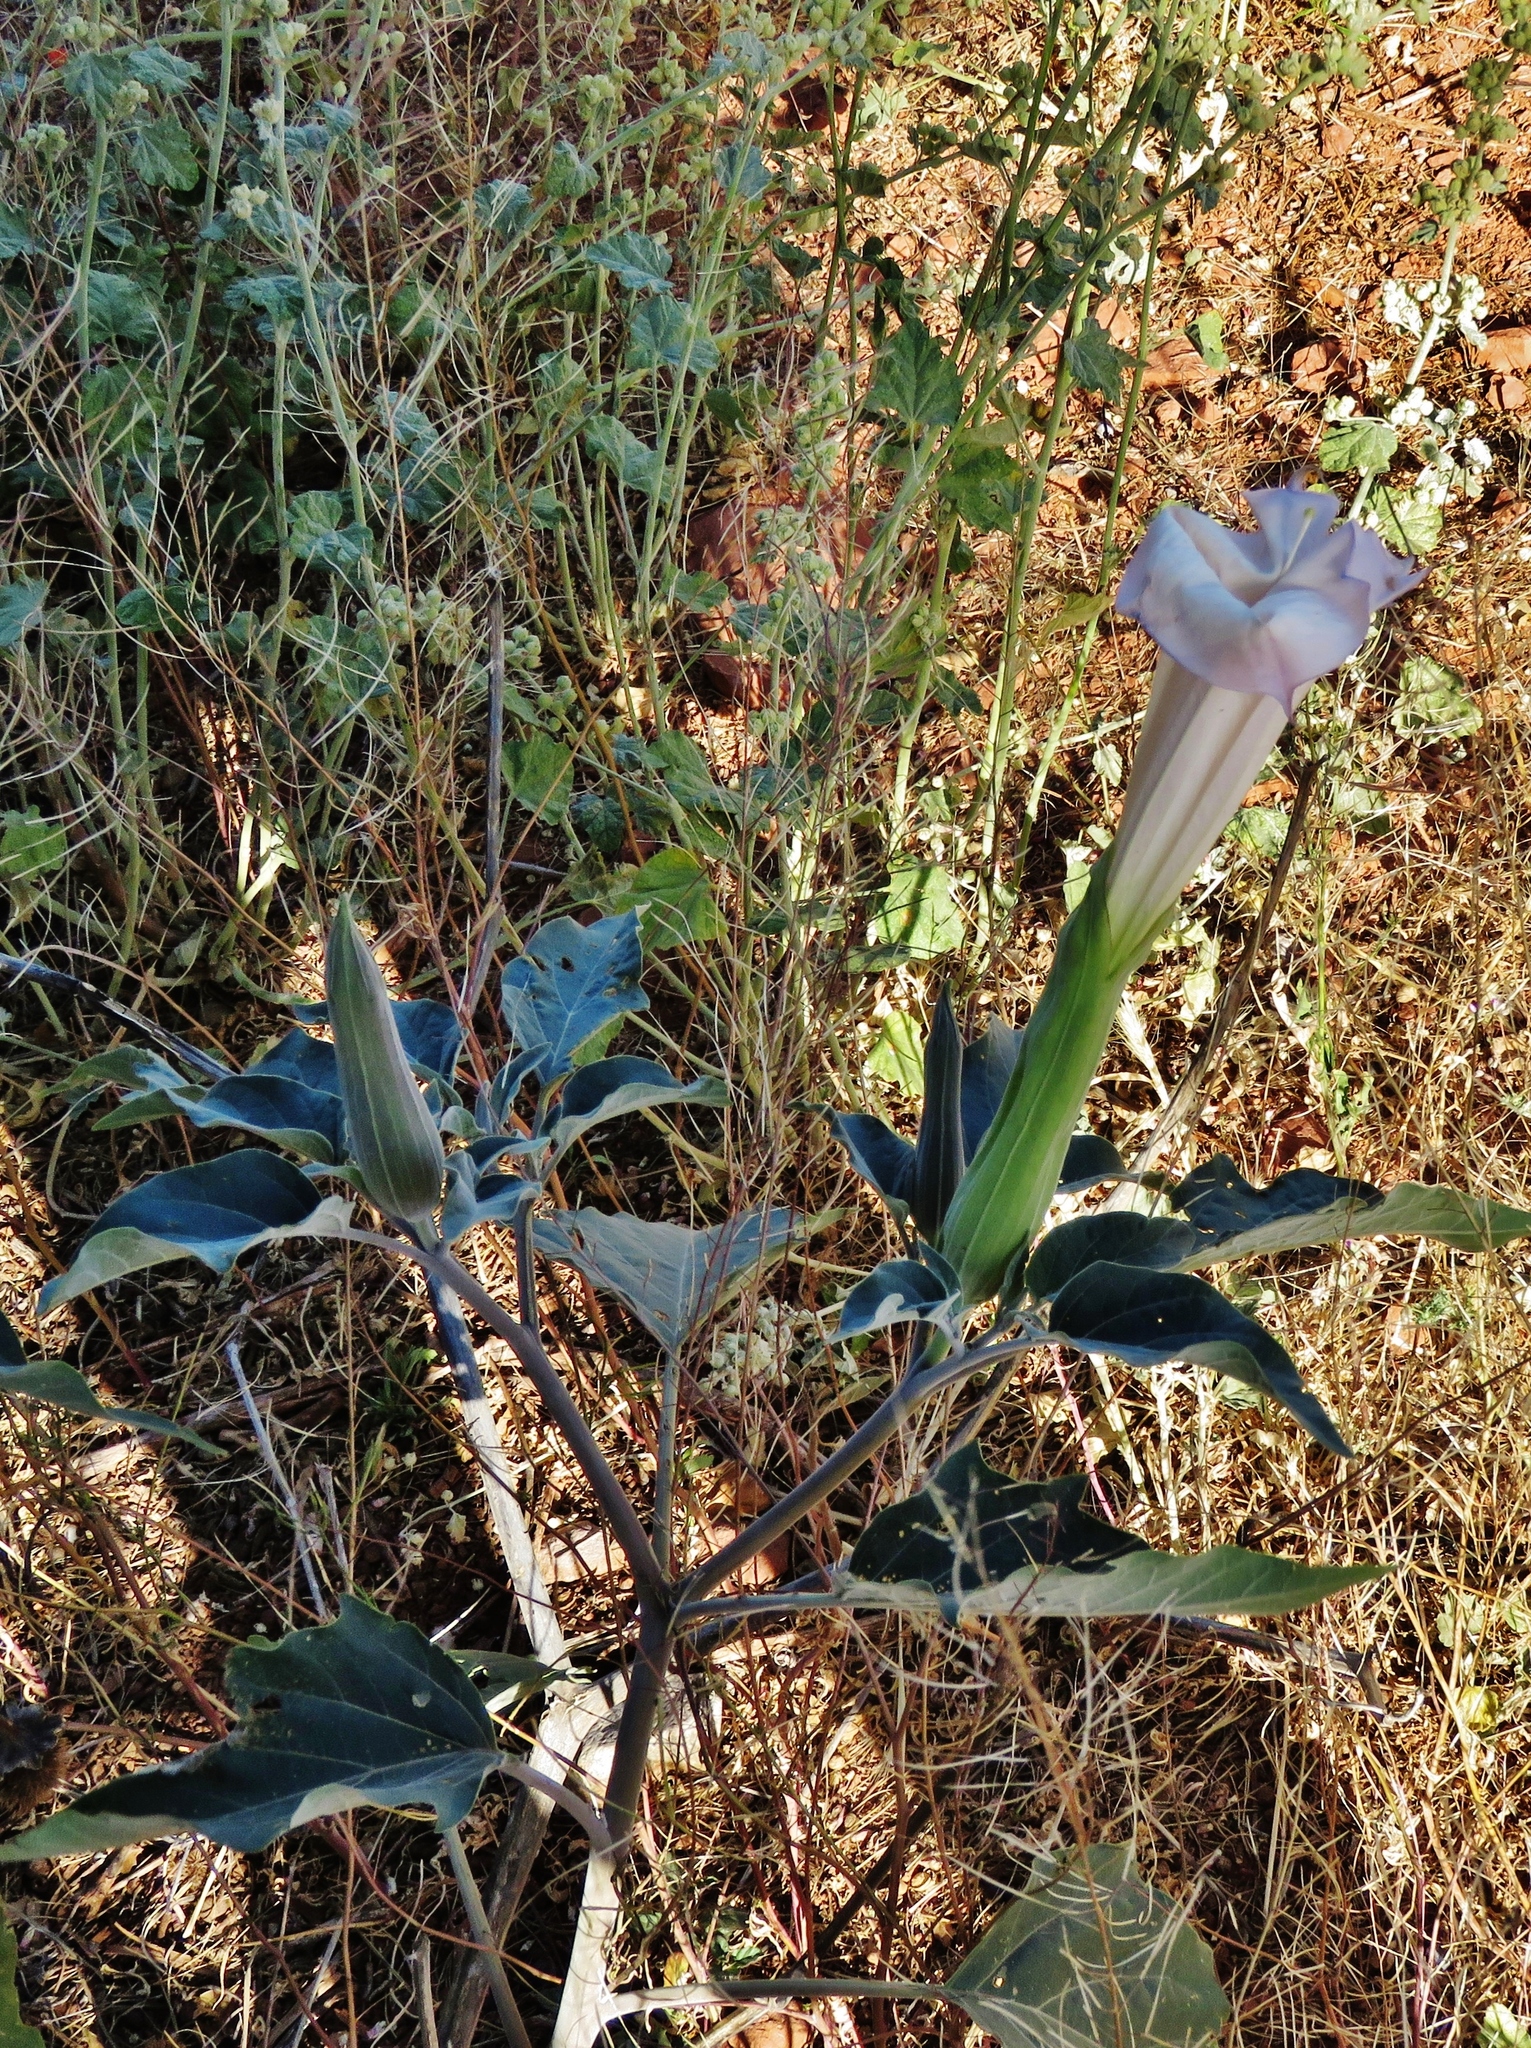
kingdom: Plantae
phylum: Tracheophyta
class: Magnoliopsida
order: Solanales
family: Solanaceae
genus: Datura
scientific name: Datura wrightii
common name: Sacred thorn-apple
